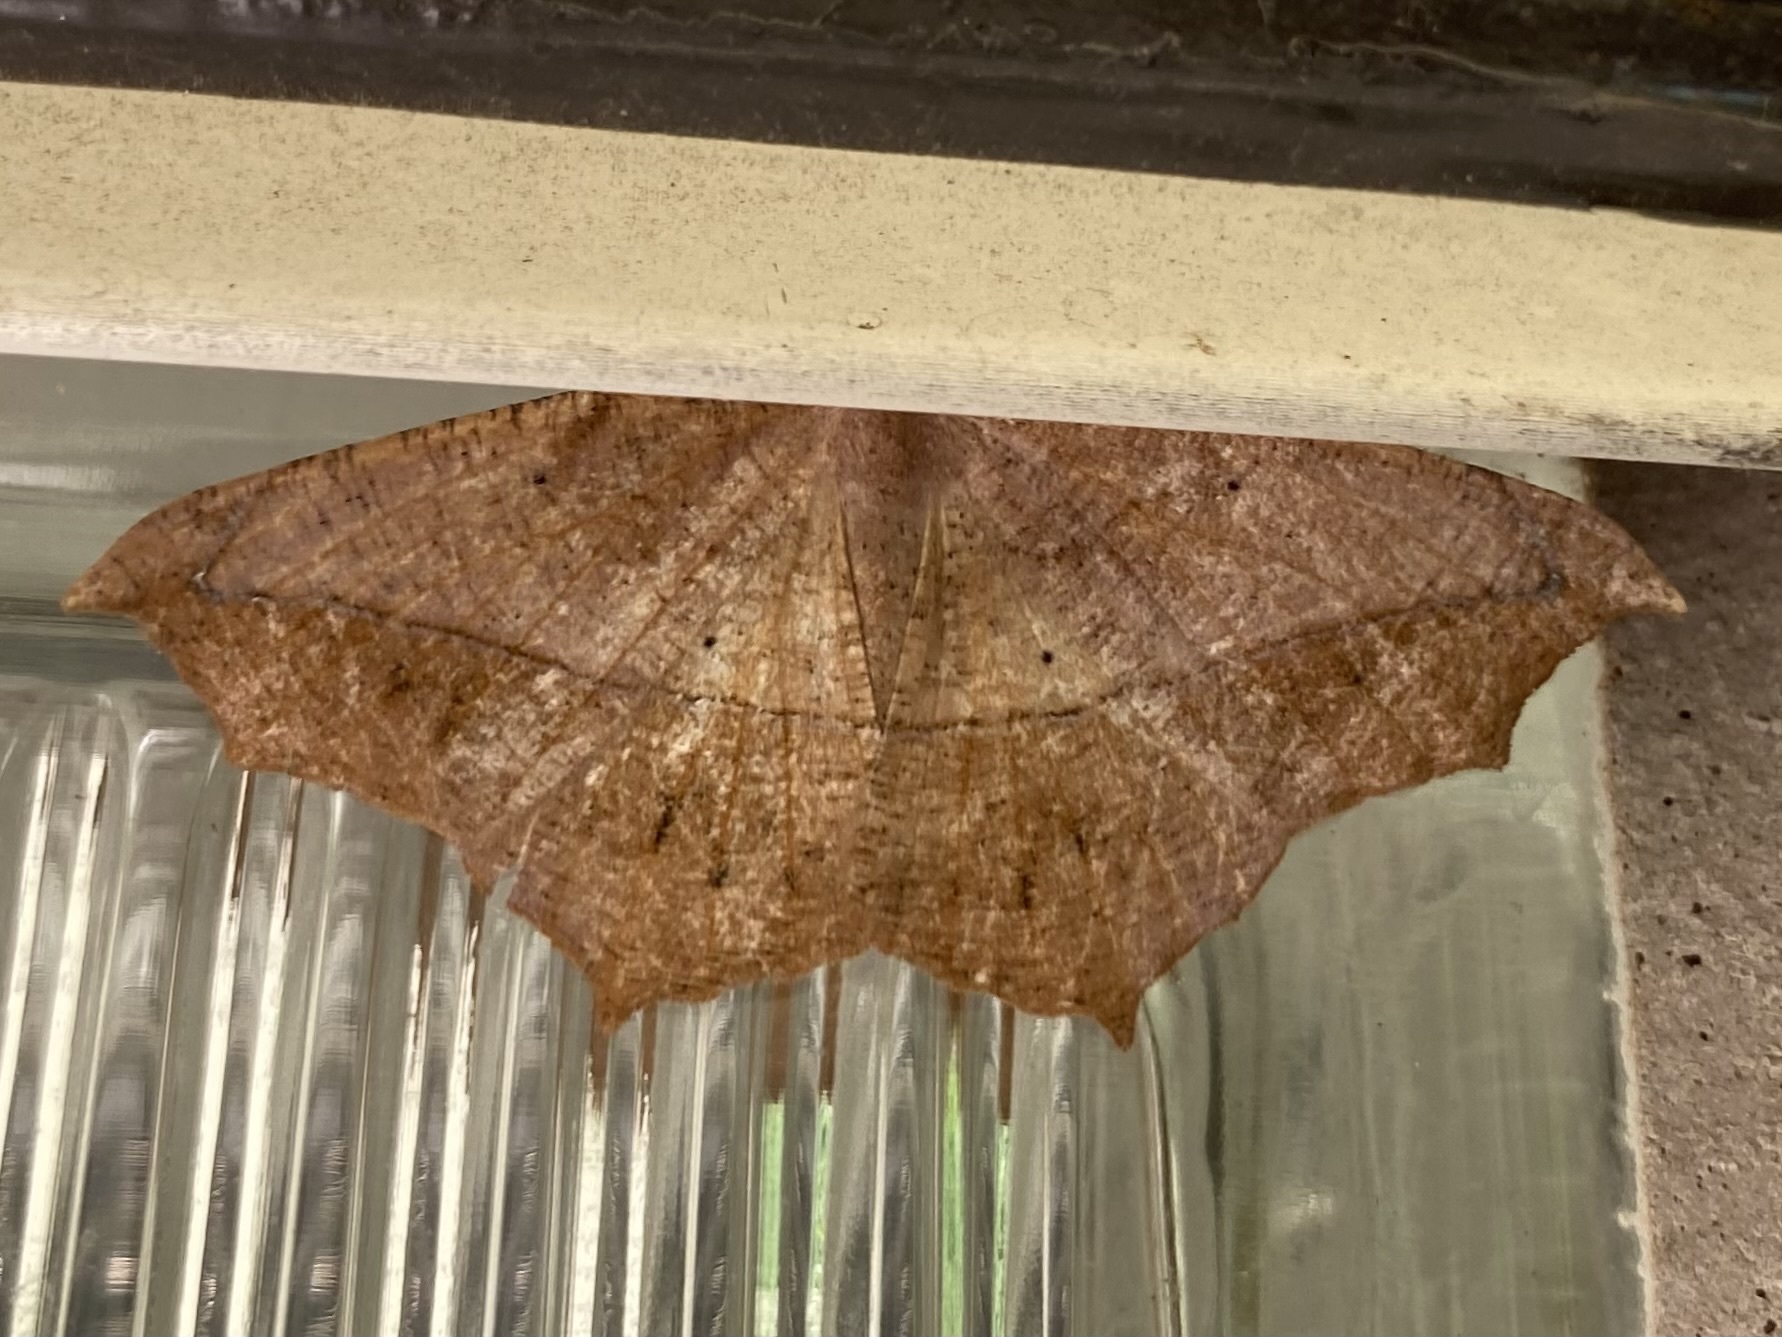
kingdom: Animalia
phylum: Arthropoda
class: Insecta
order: Lepidoptera
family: Geometridae
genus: Prochoerodes
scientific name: Prochoerodes lineola
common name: Large maple spanworm
